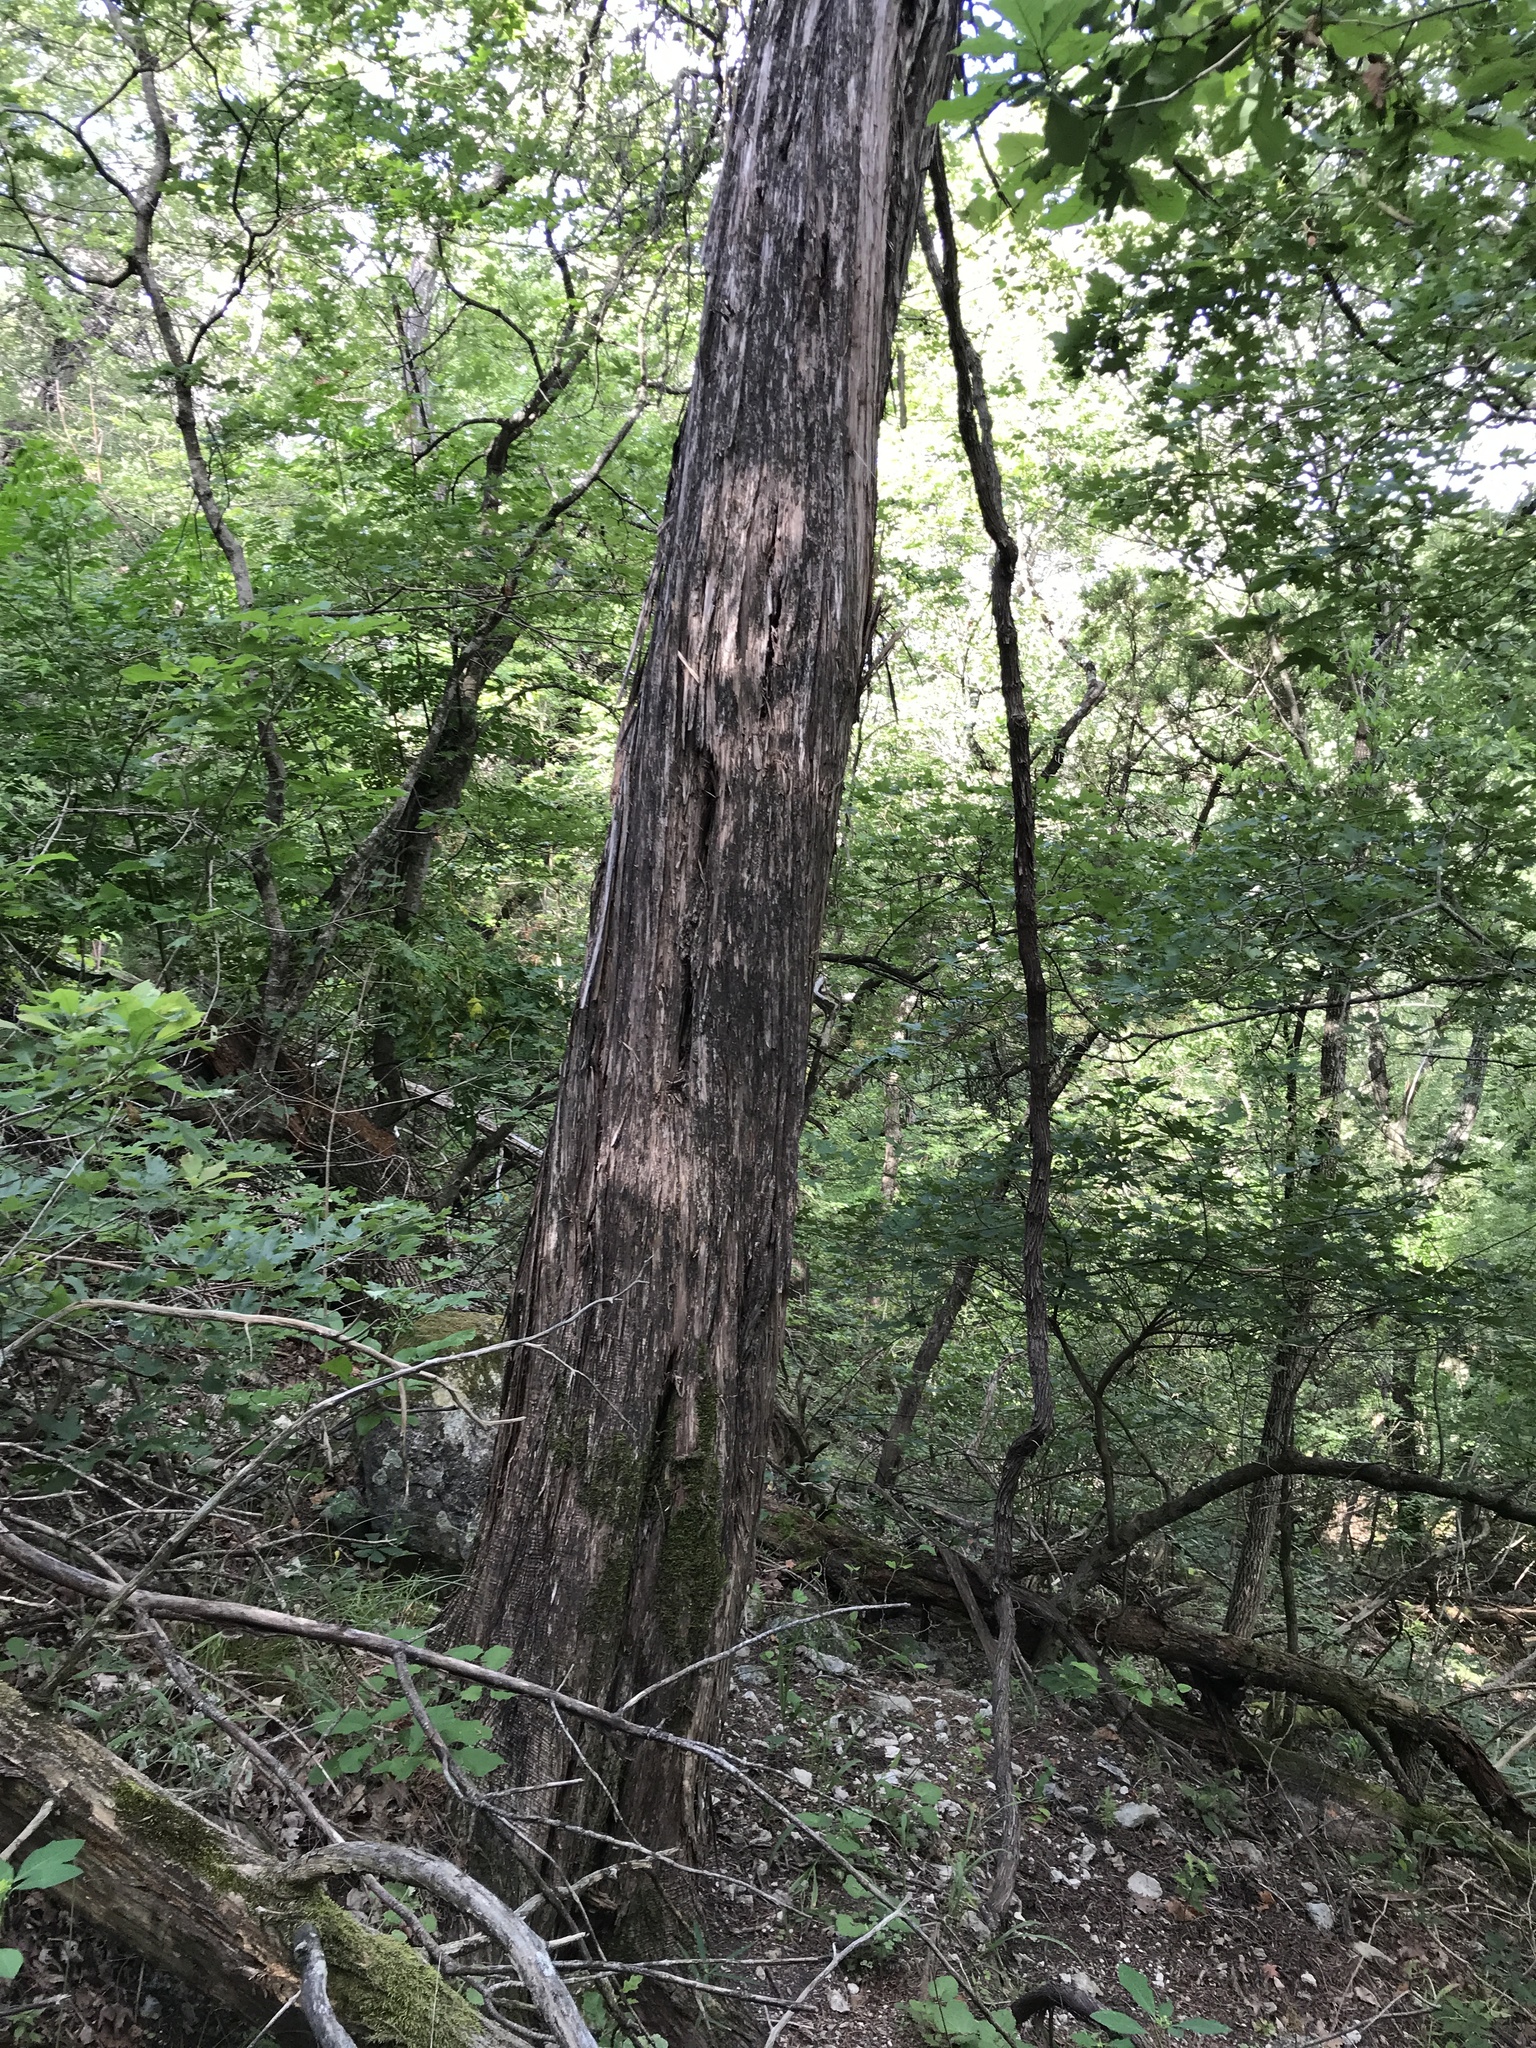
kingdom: Plantae
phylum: Tracheophyta
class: Pinopsida
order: Pinales
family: Cupressaceae
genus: Juniperus
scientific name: Juniperus ashei
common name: Mexican juniper
